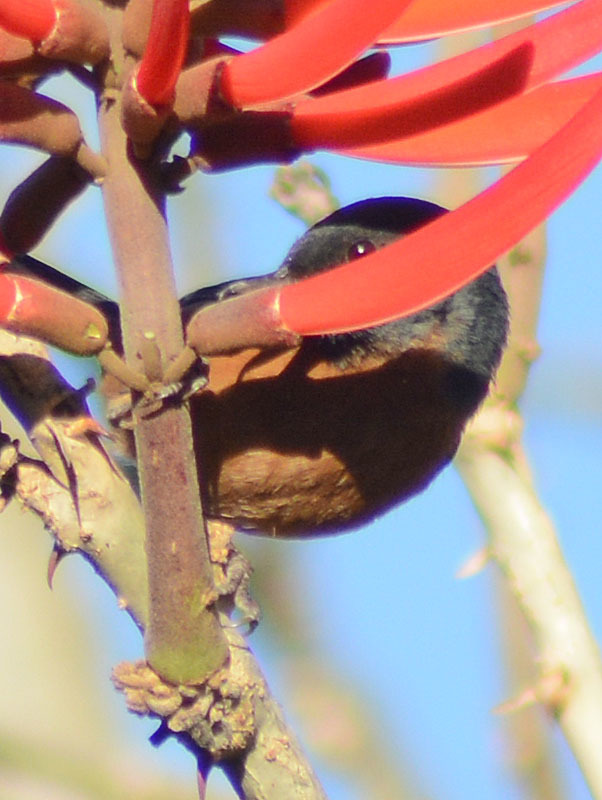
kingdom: Animalia
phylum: Chordata
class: Aves
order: Passeriformes
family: Thraupidae
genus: Diglossa
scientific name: Diglossa baritula
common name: Cinnamon-bellied flowerpiercer
